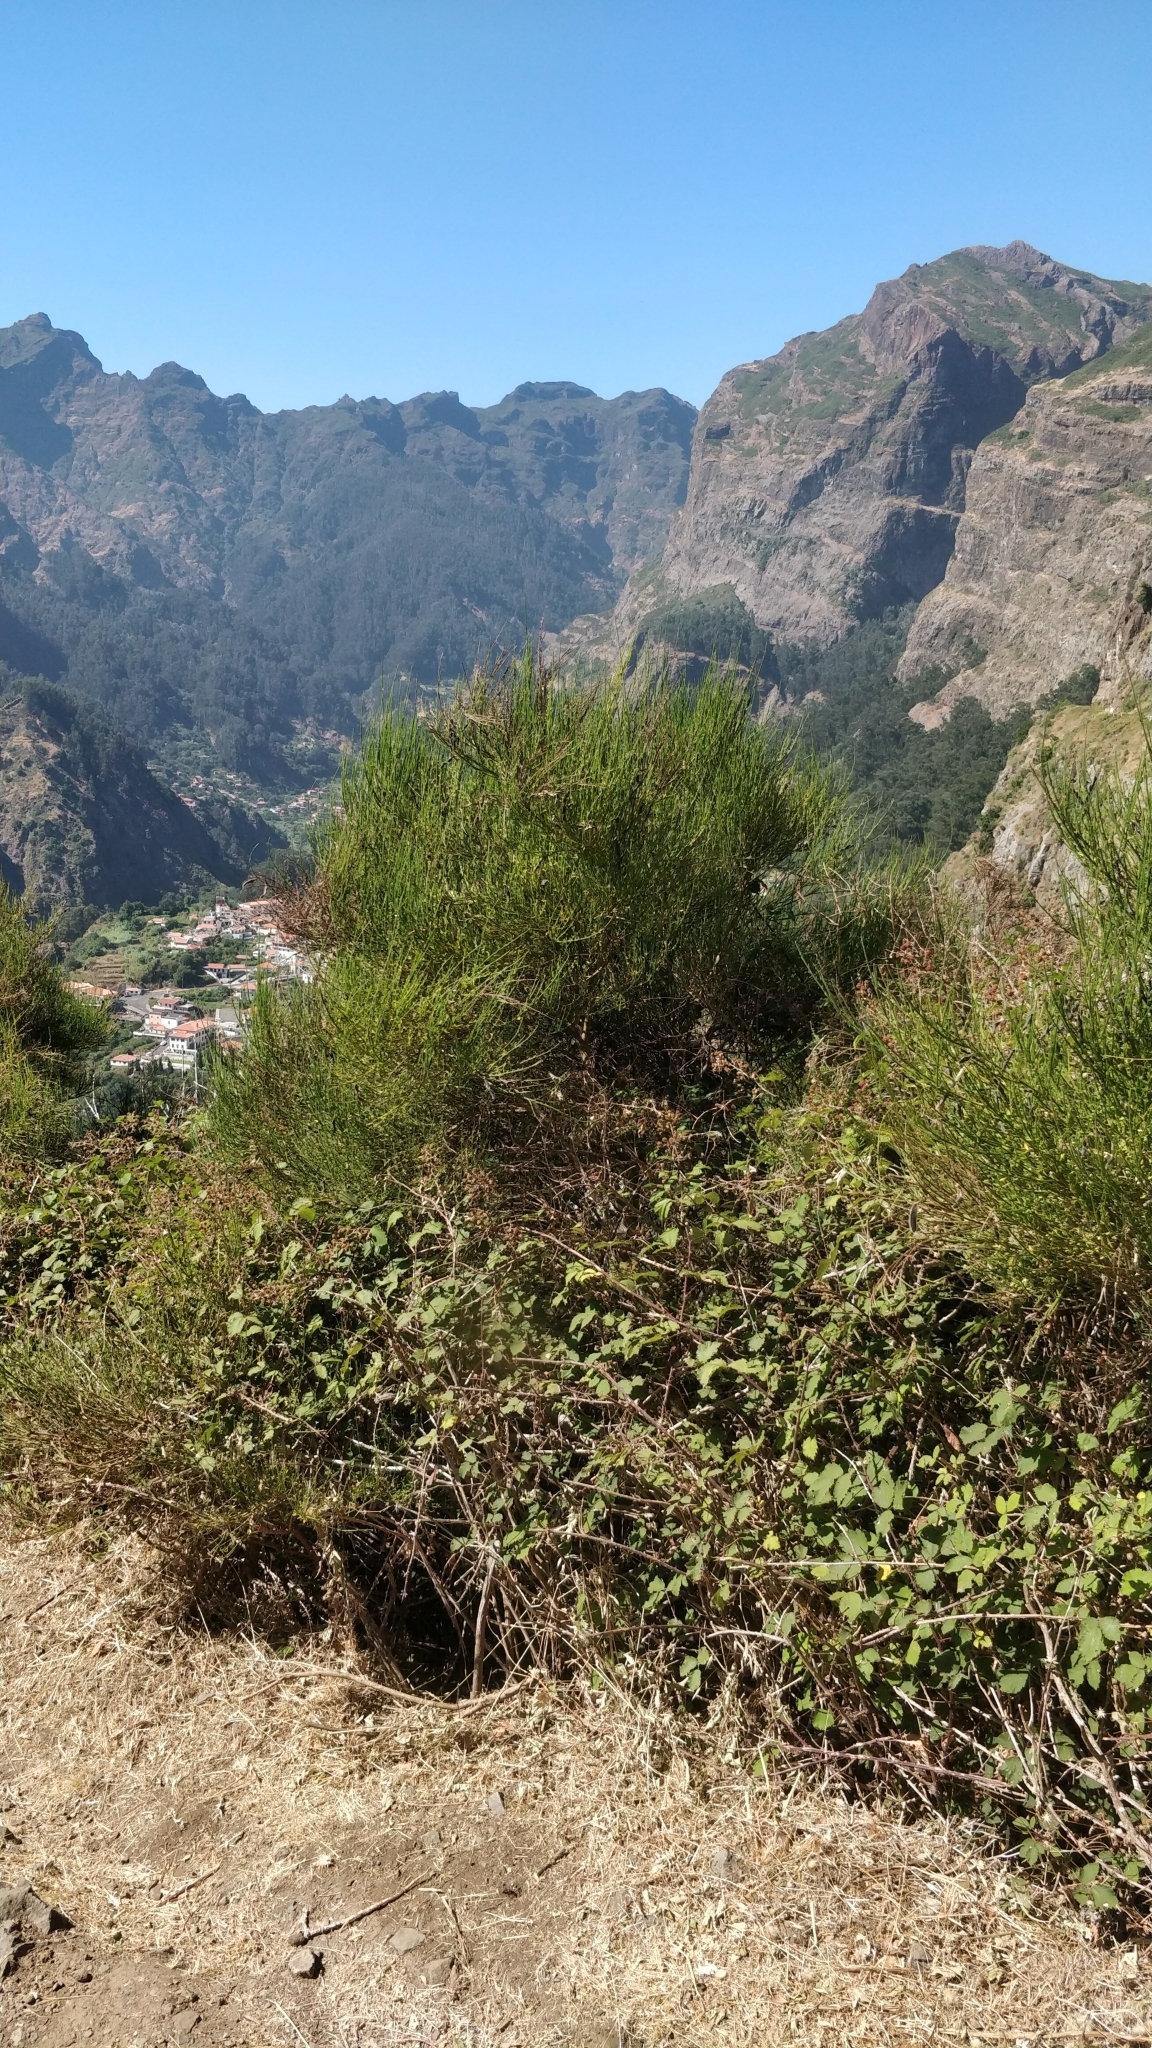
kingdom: Plantae
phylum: Tracheophyta
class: Magnoliopsida
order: Fabales
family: Fabaceae
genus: Cytisus
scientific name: Cytisus scoparius
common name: Scotch broom
